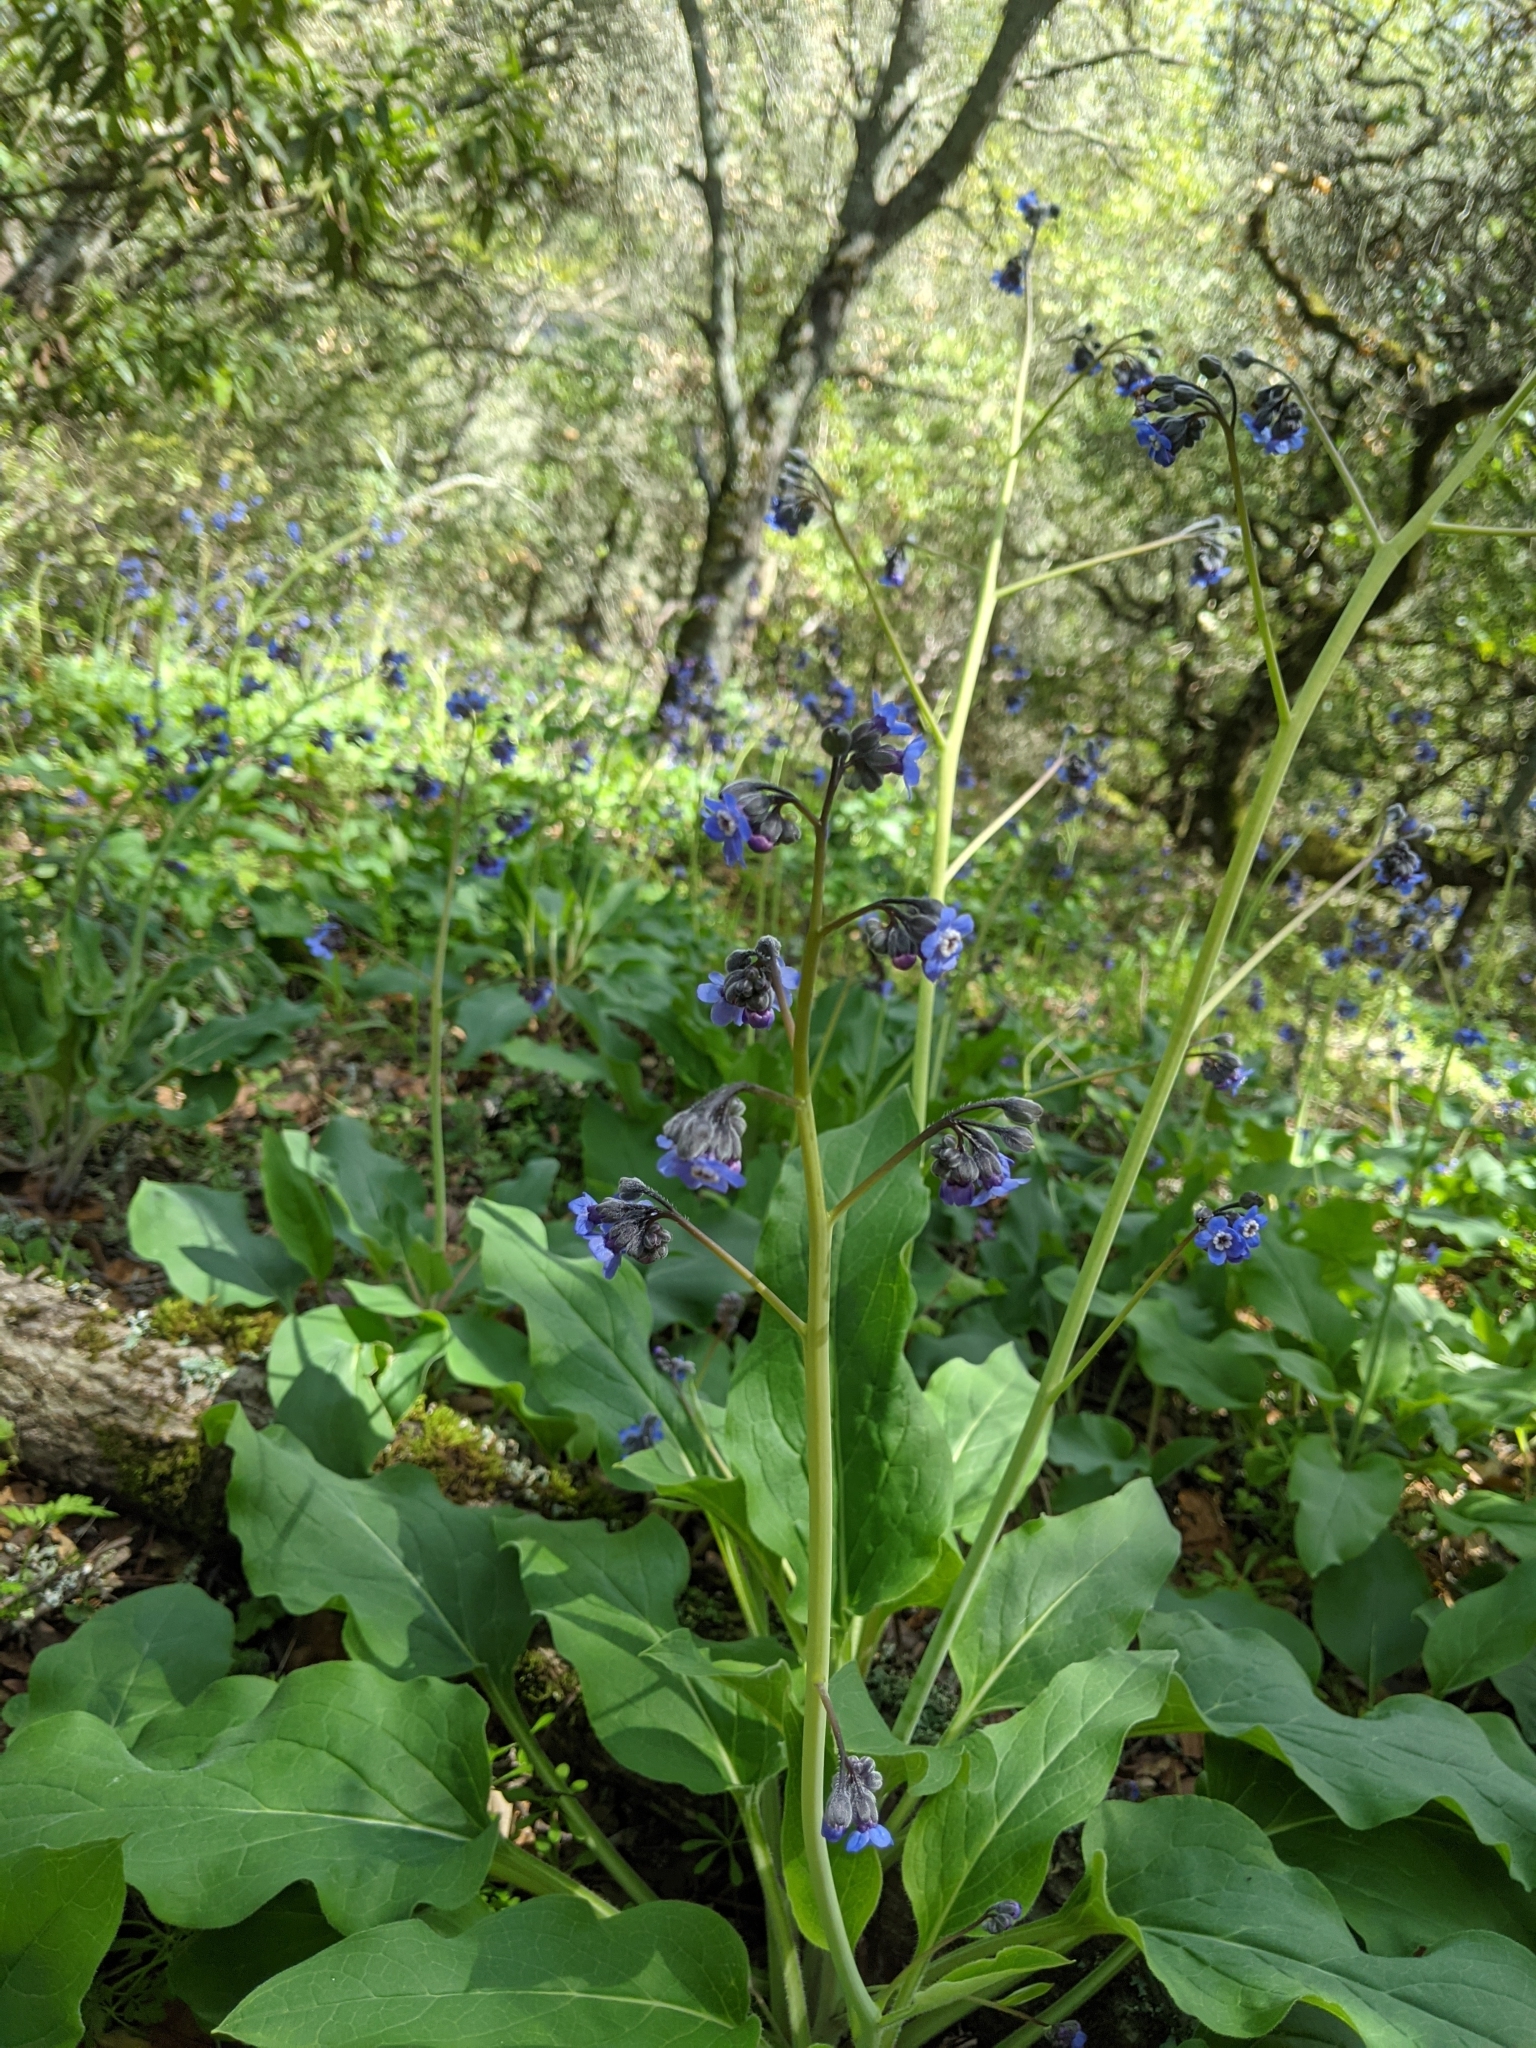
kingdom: Plantae
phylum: Tracheophyta
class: Magnoliopsida
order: Boraginales
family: Boraginaceae
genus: Adelinia
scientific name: Adelinia grande
